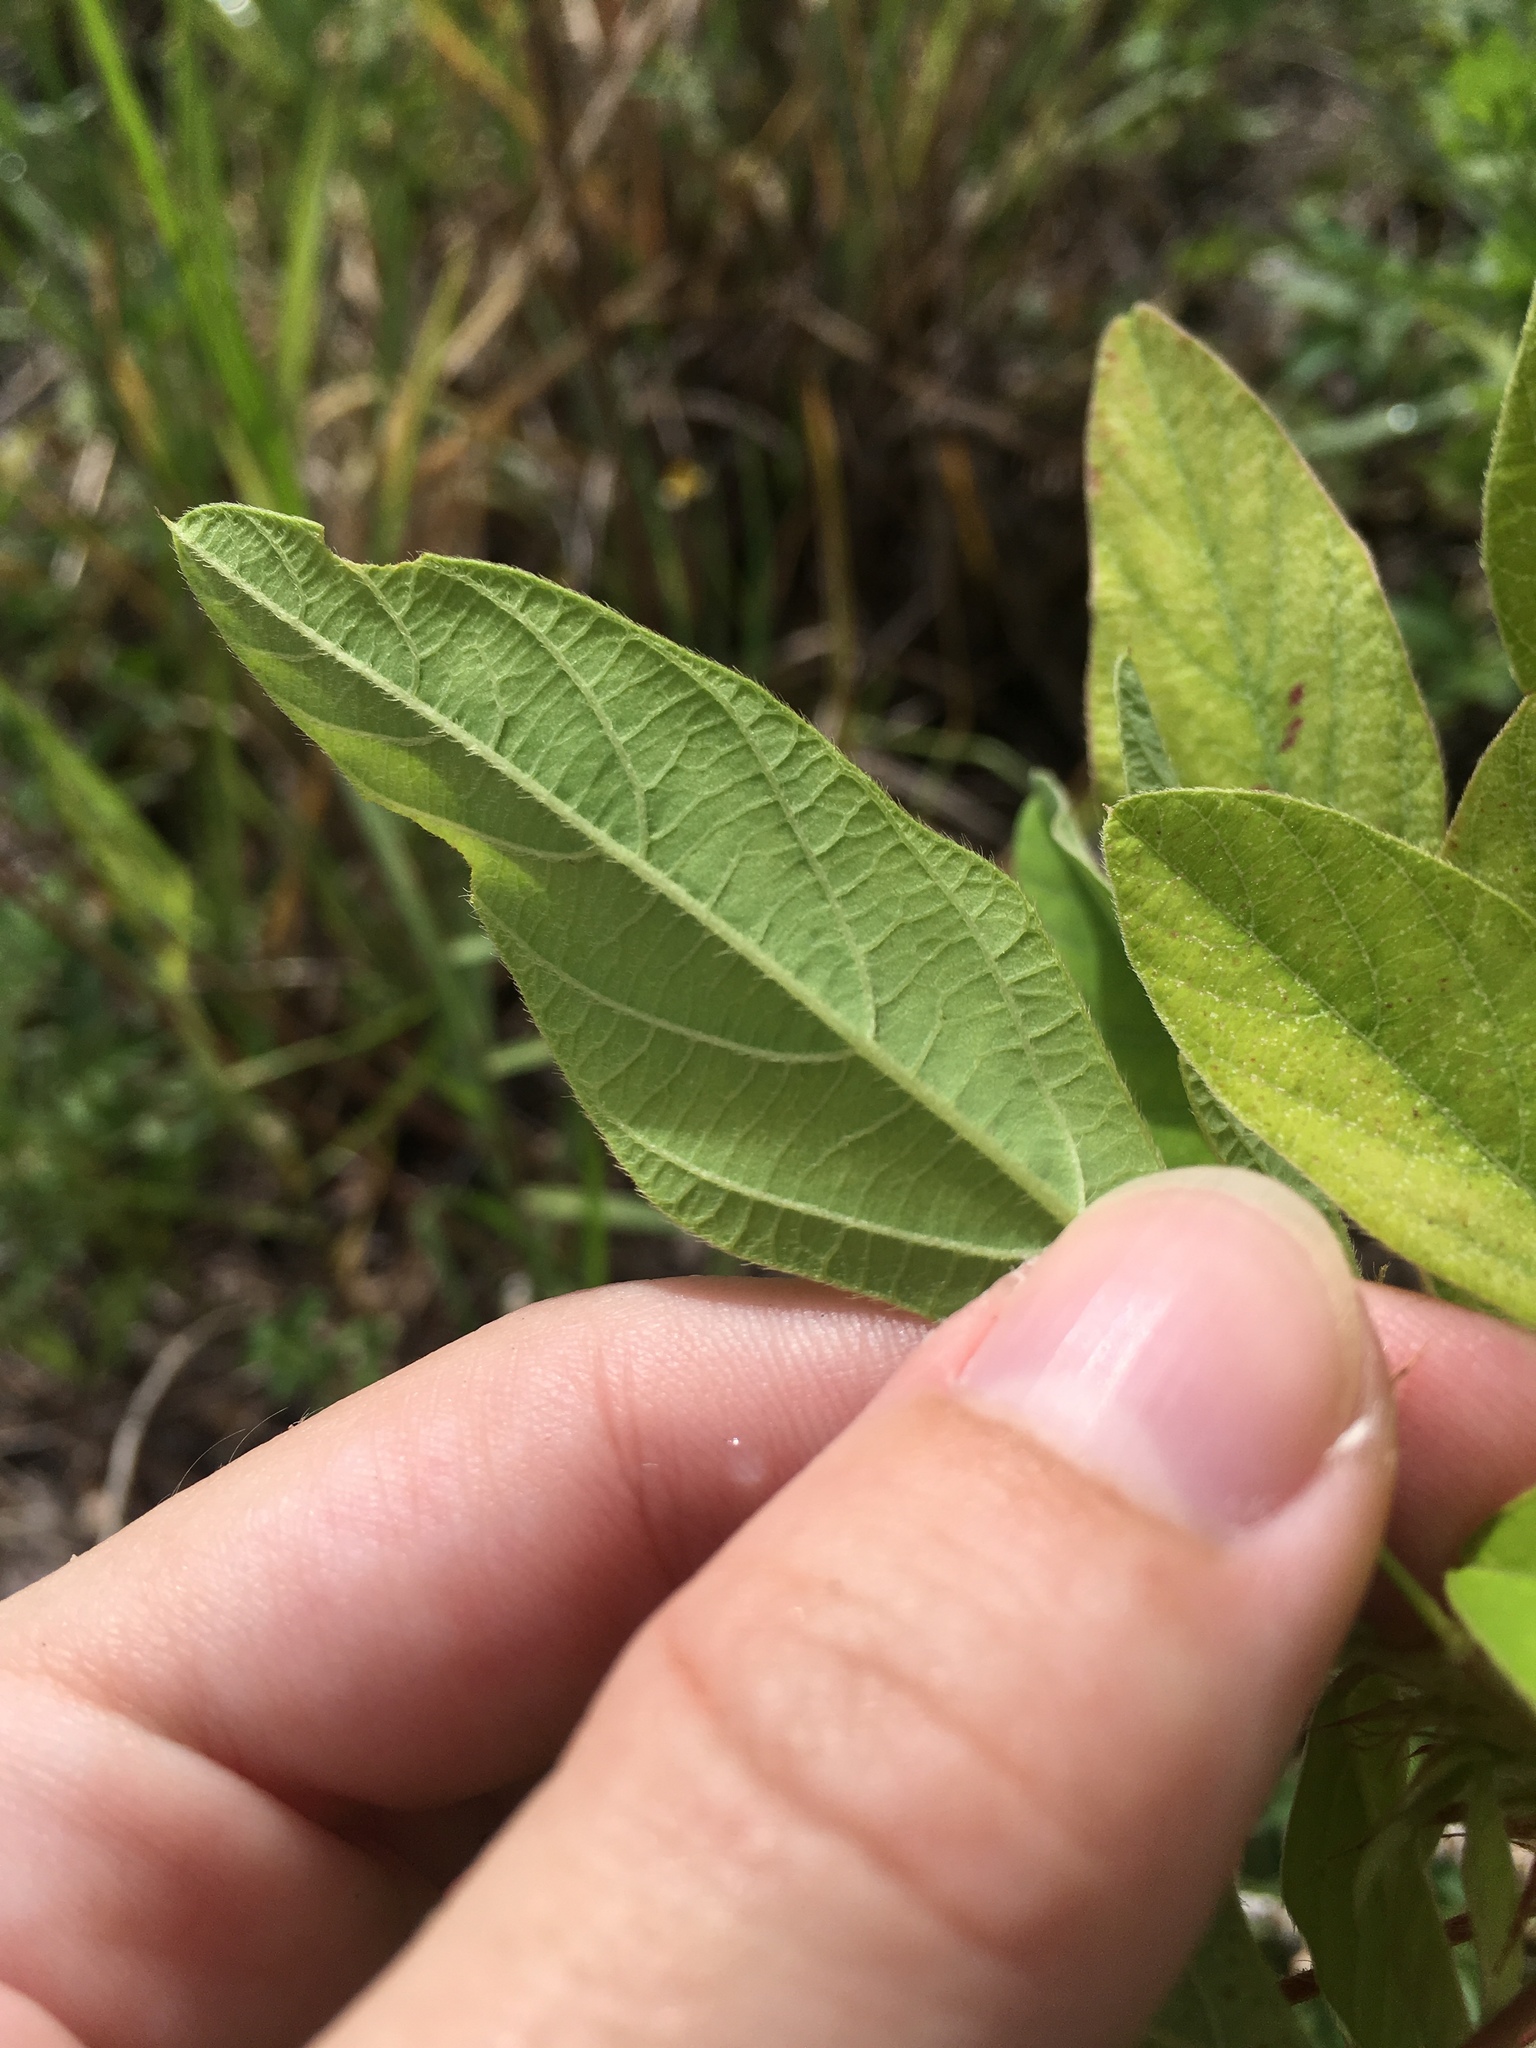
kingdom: Plantae
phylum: Tracheophyta
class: Magnoliopsida
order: Fabales
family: Fabaceae
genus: Desmodium
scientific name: Desmodium tortuosum
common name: Dixie ticktrefoil
